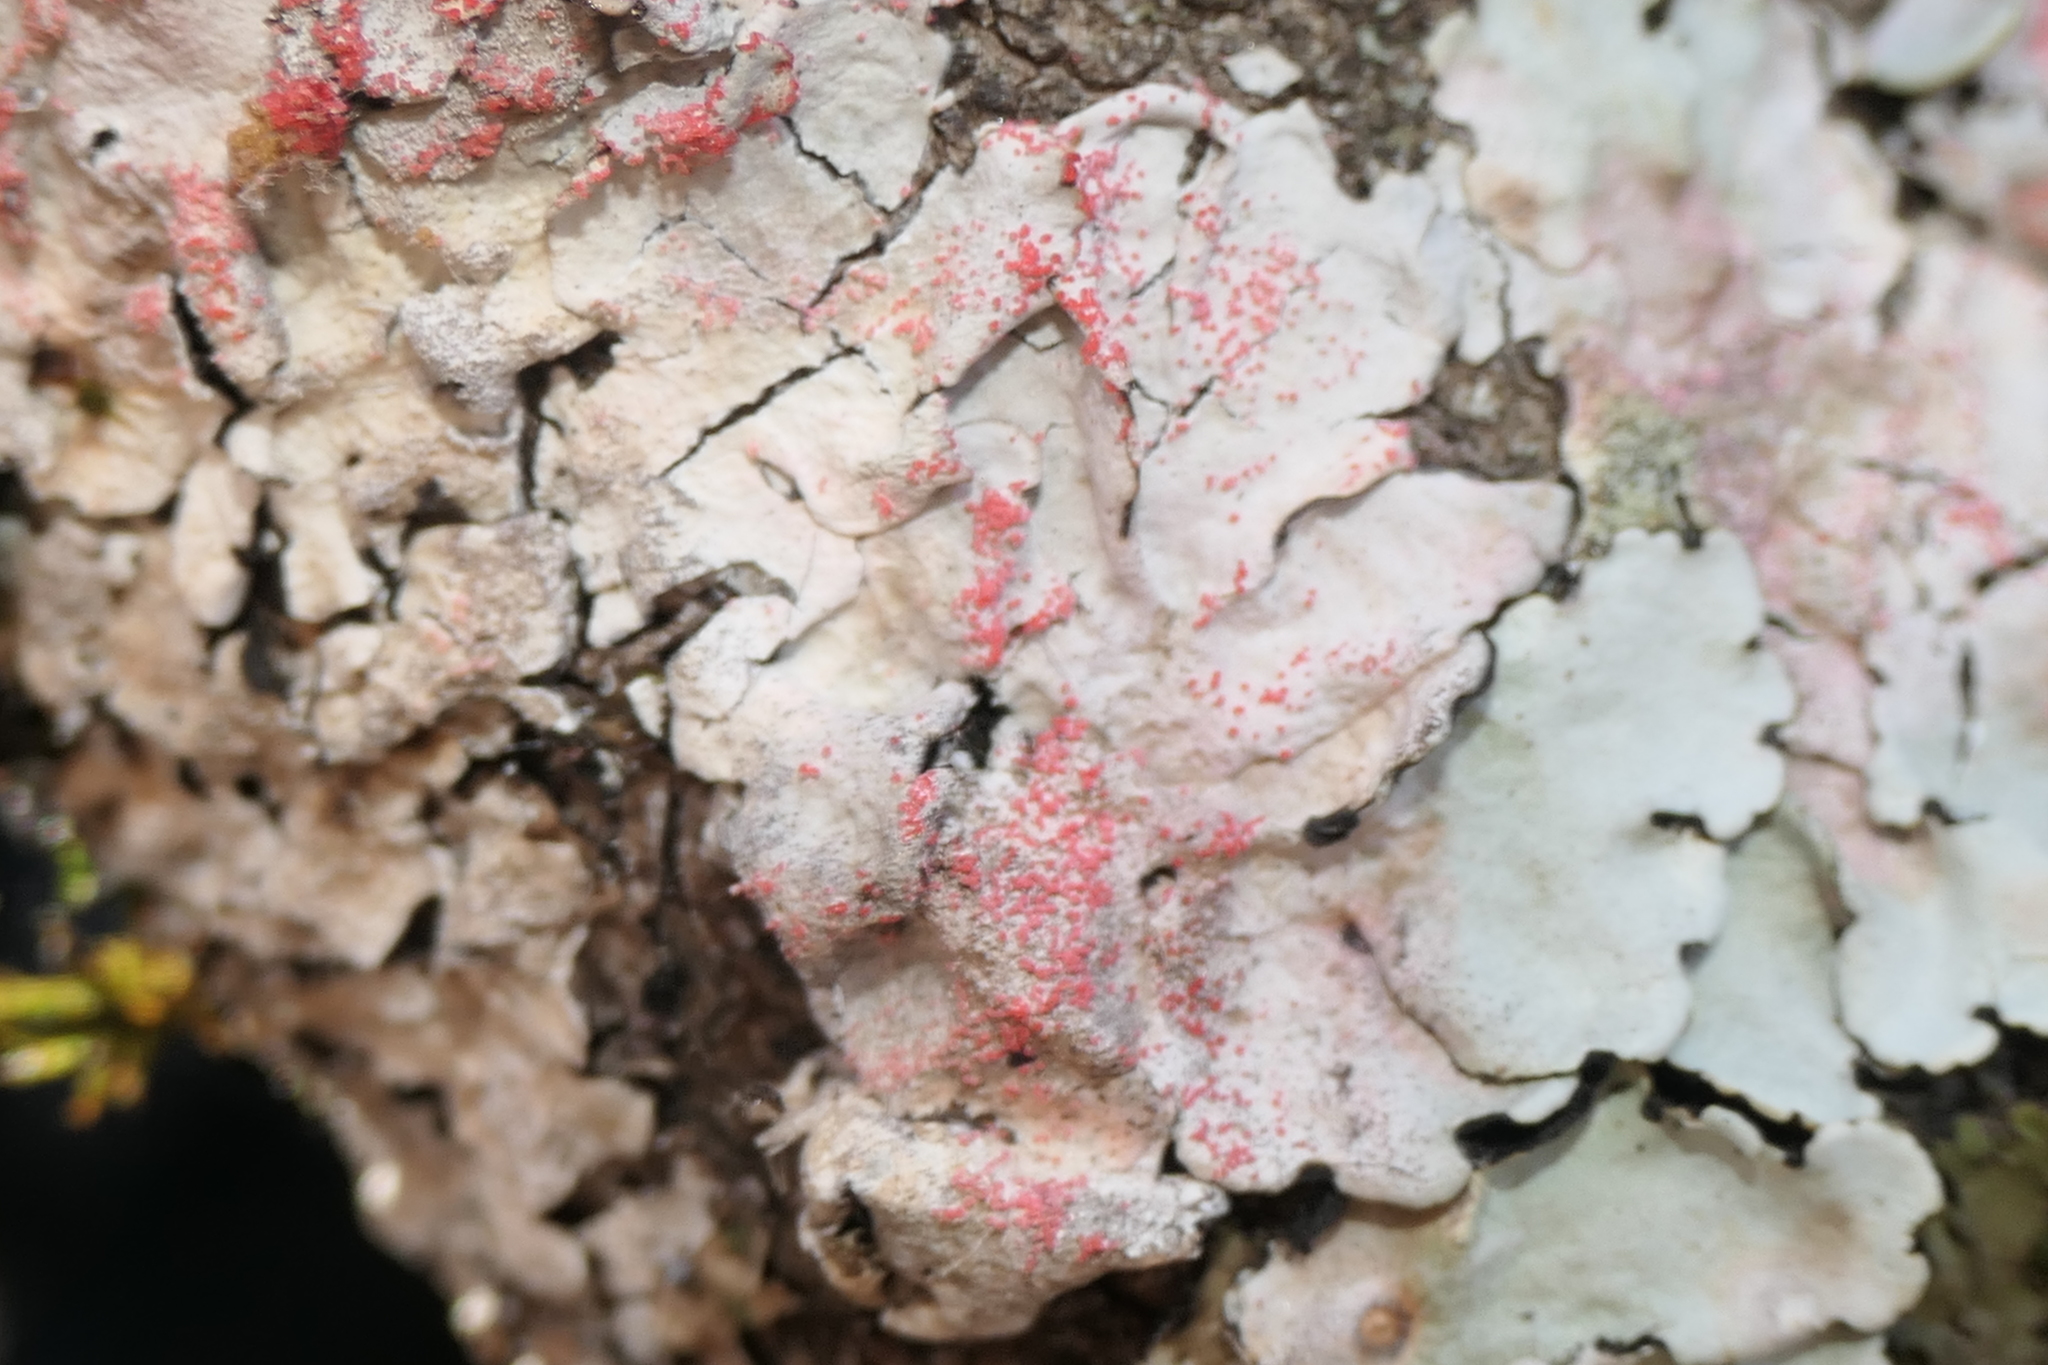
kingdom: Fungi
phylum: Basidiomycota
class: Agaricomycetes
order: Corticiales
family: Corticiaceae
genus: Marchandiomyces
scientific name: Marchandiomyces corallinus
